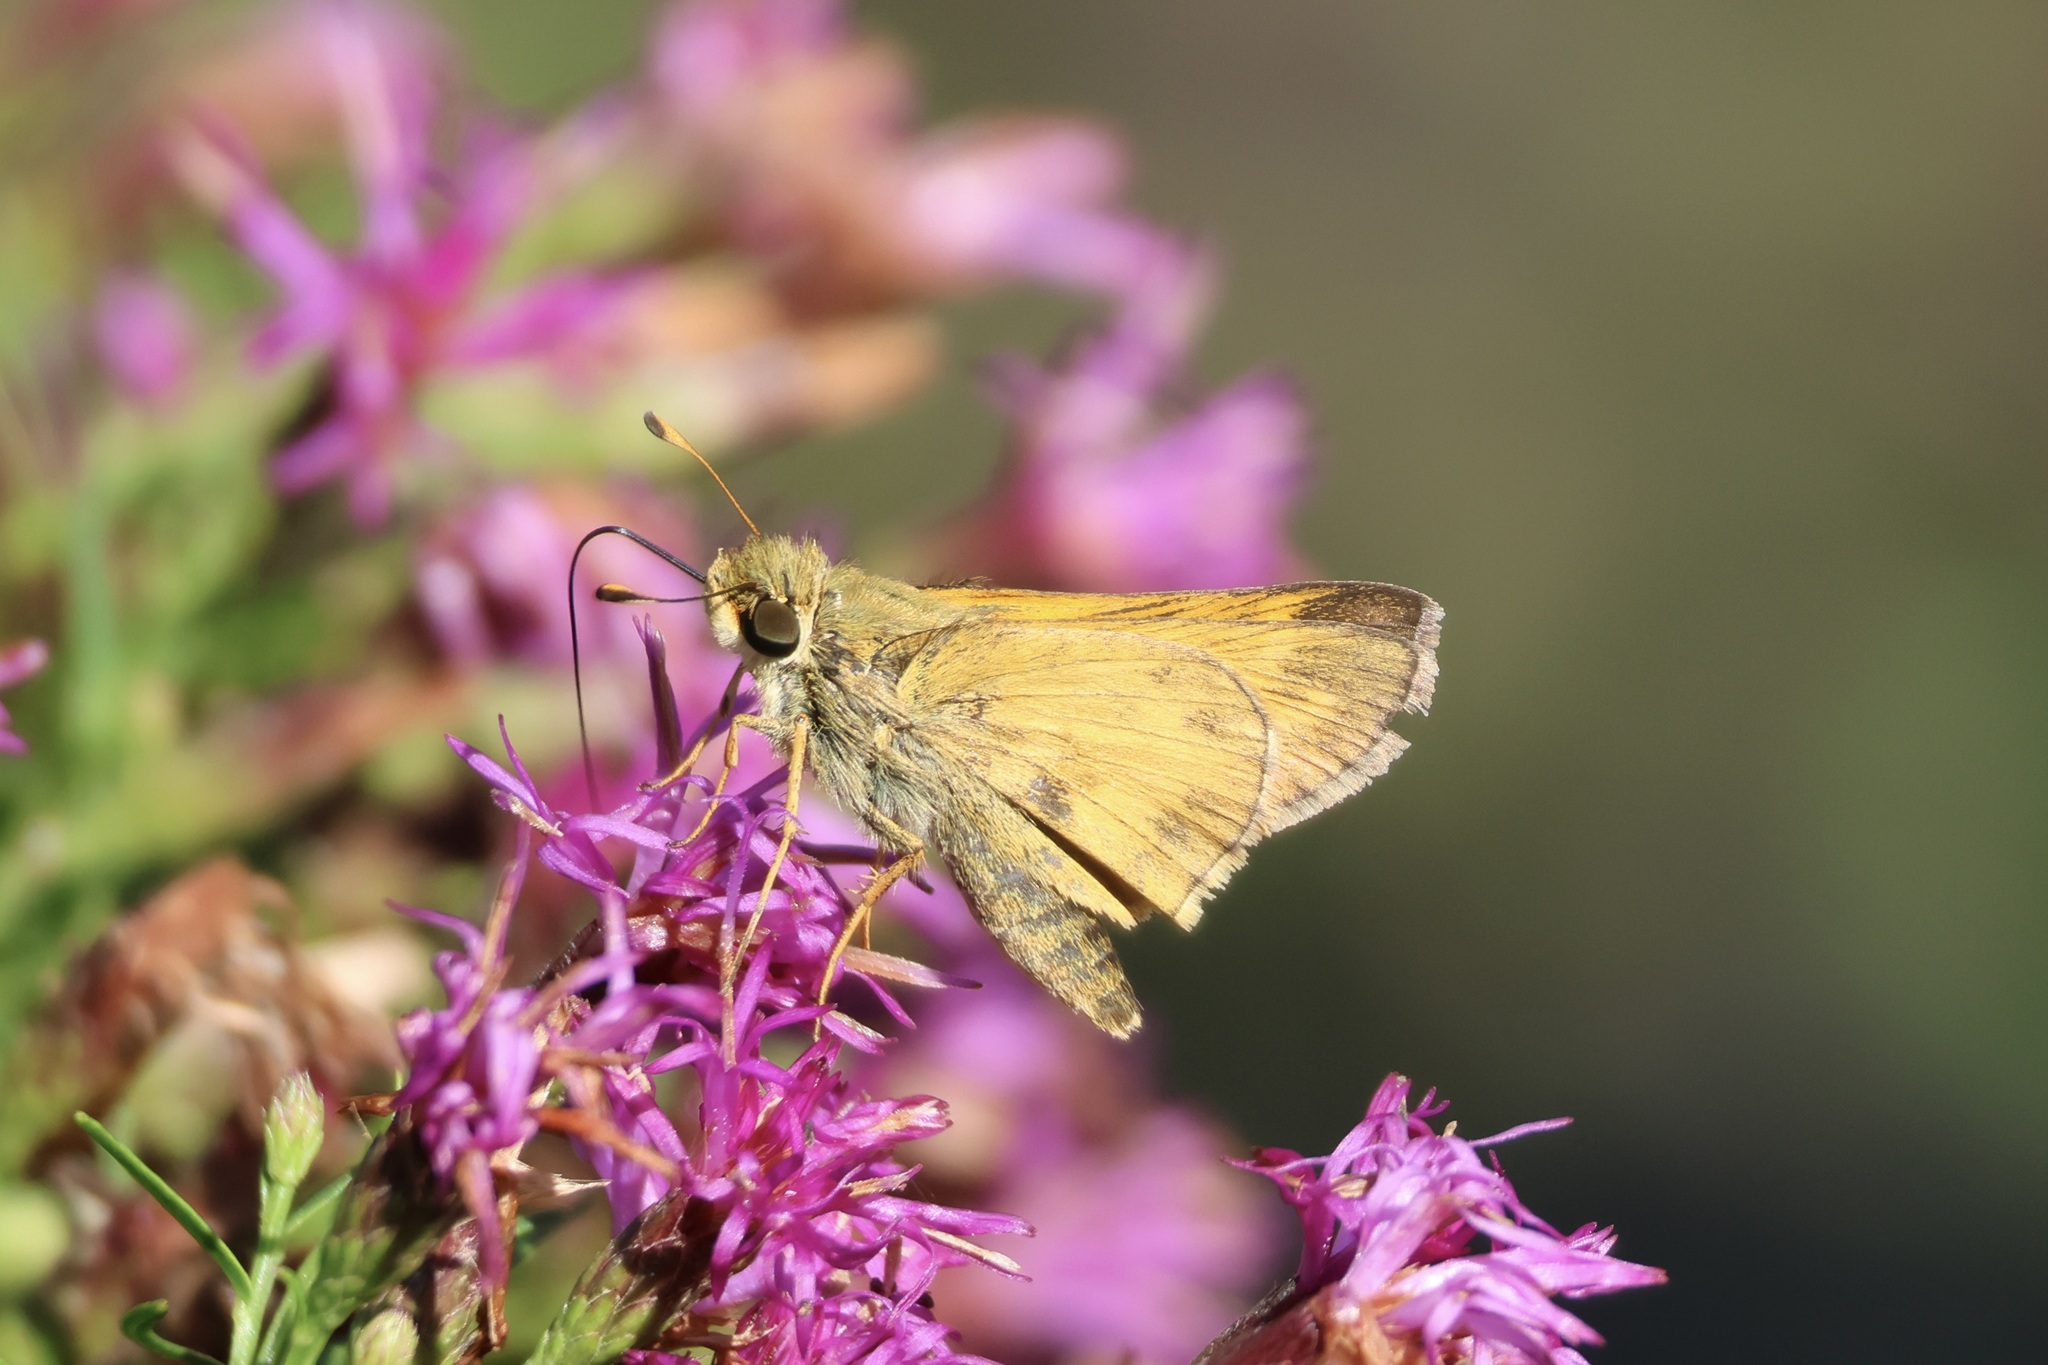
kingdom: Animalia
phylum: Arthropoda
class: Insecta
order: Lepidoptera
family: Hesperiidae
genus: Atalopedes
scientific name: Atalopedes
